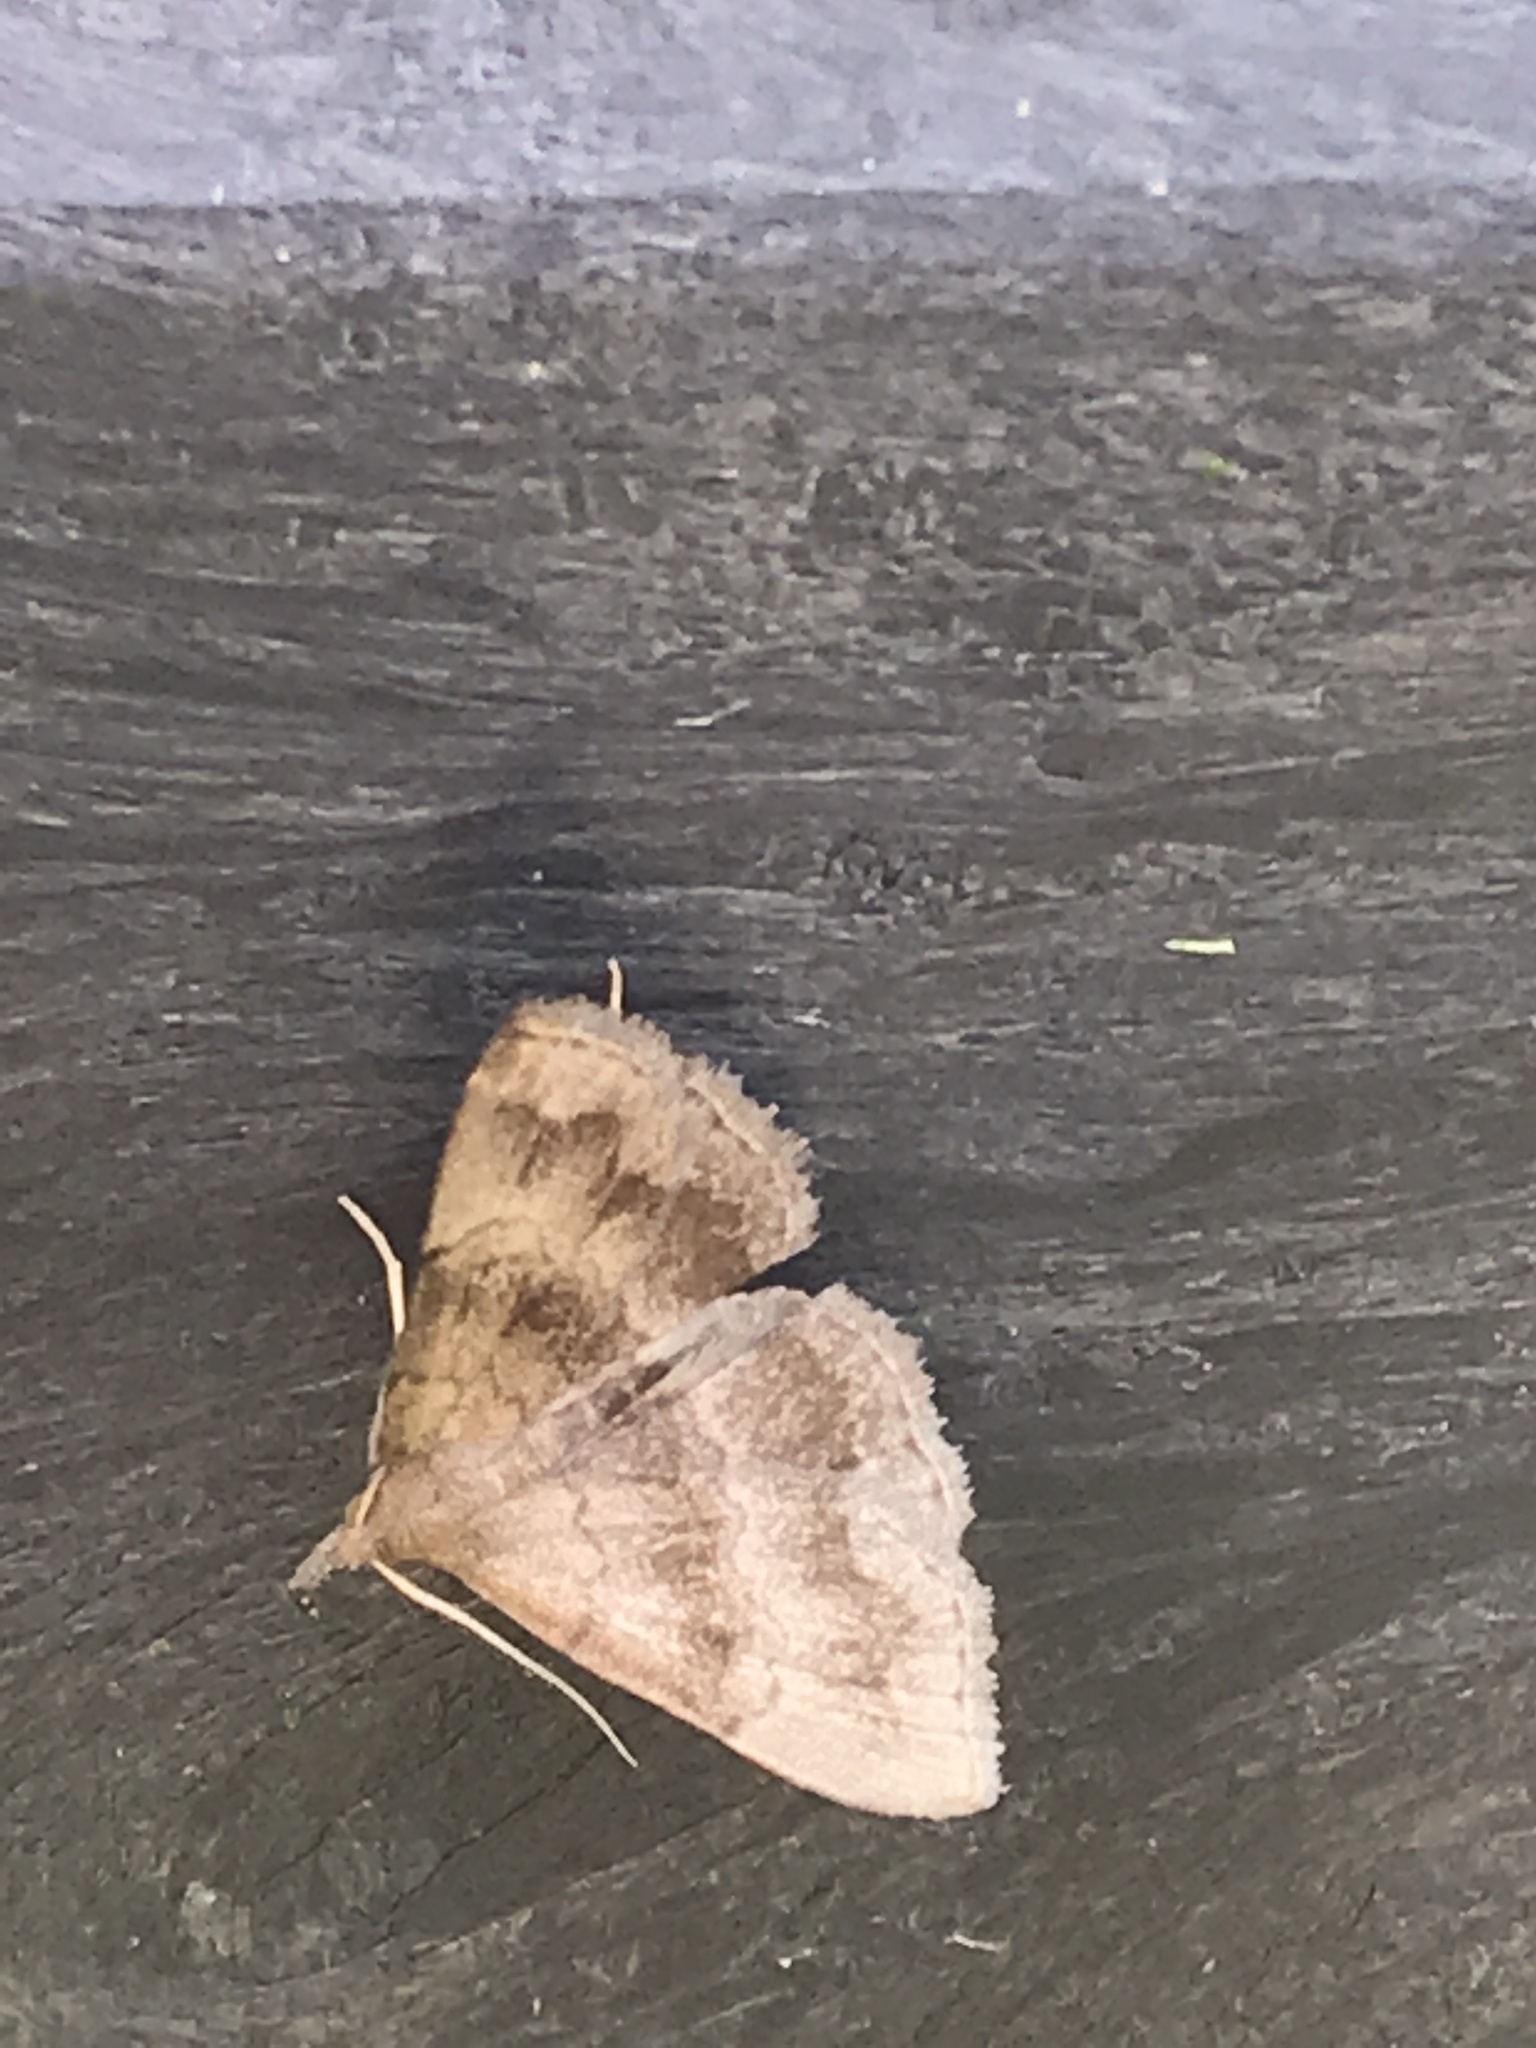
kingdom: Animalia
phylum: Arthropoda
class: Insecta
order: Lepidoptera
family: Erebidae
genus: Phalaenostola
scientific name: Phalaenostola larentioides
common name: Black-banded owlet
